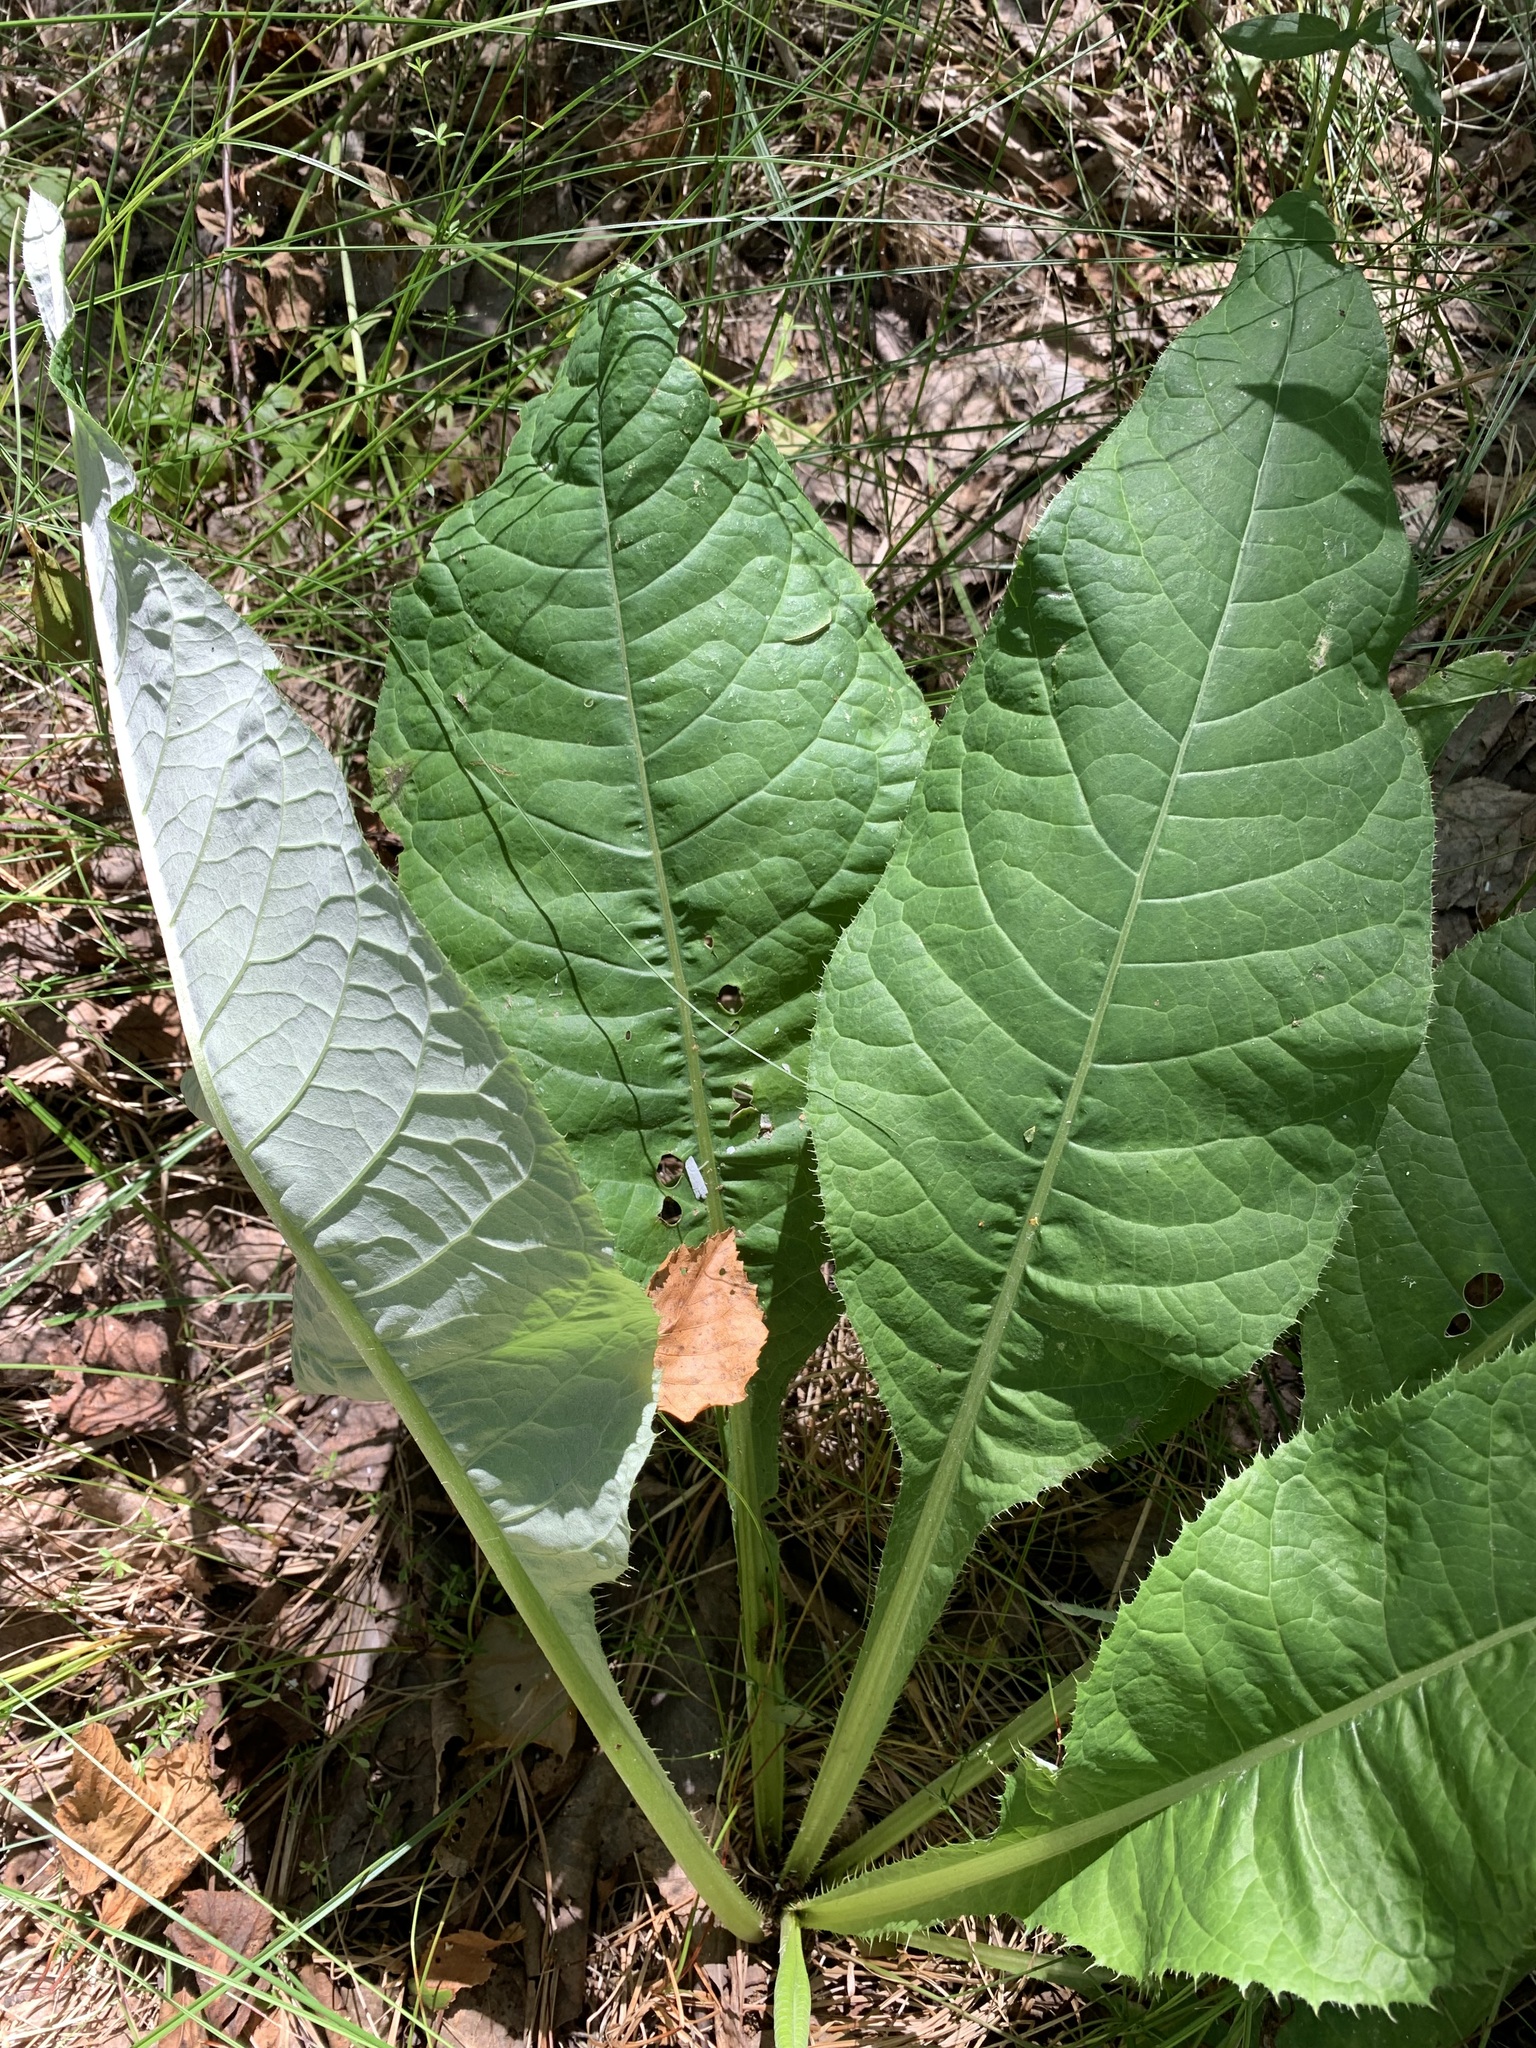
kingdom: Plantae
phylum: Tracheophyta
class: Magnoliopsida
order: Asterales
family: Asteraceae
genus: Cirsium
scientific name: Cirsium heterophyllum
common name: Melancholy thistle
